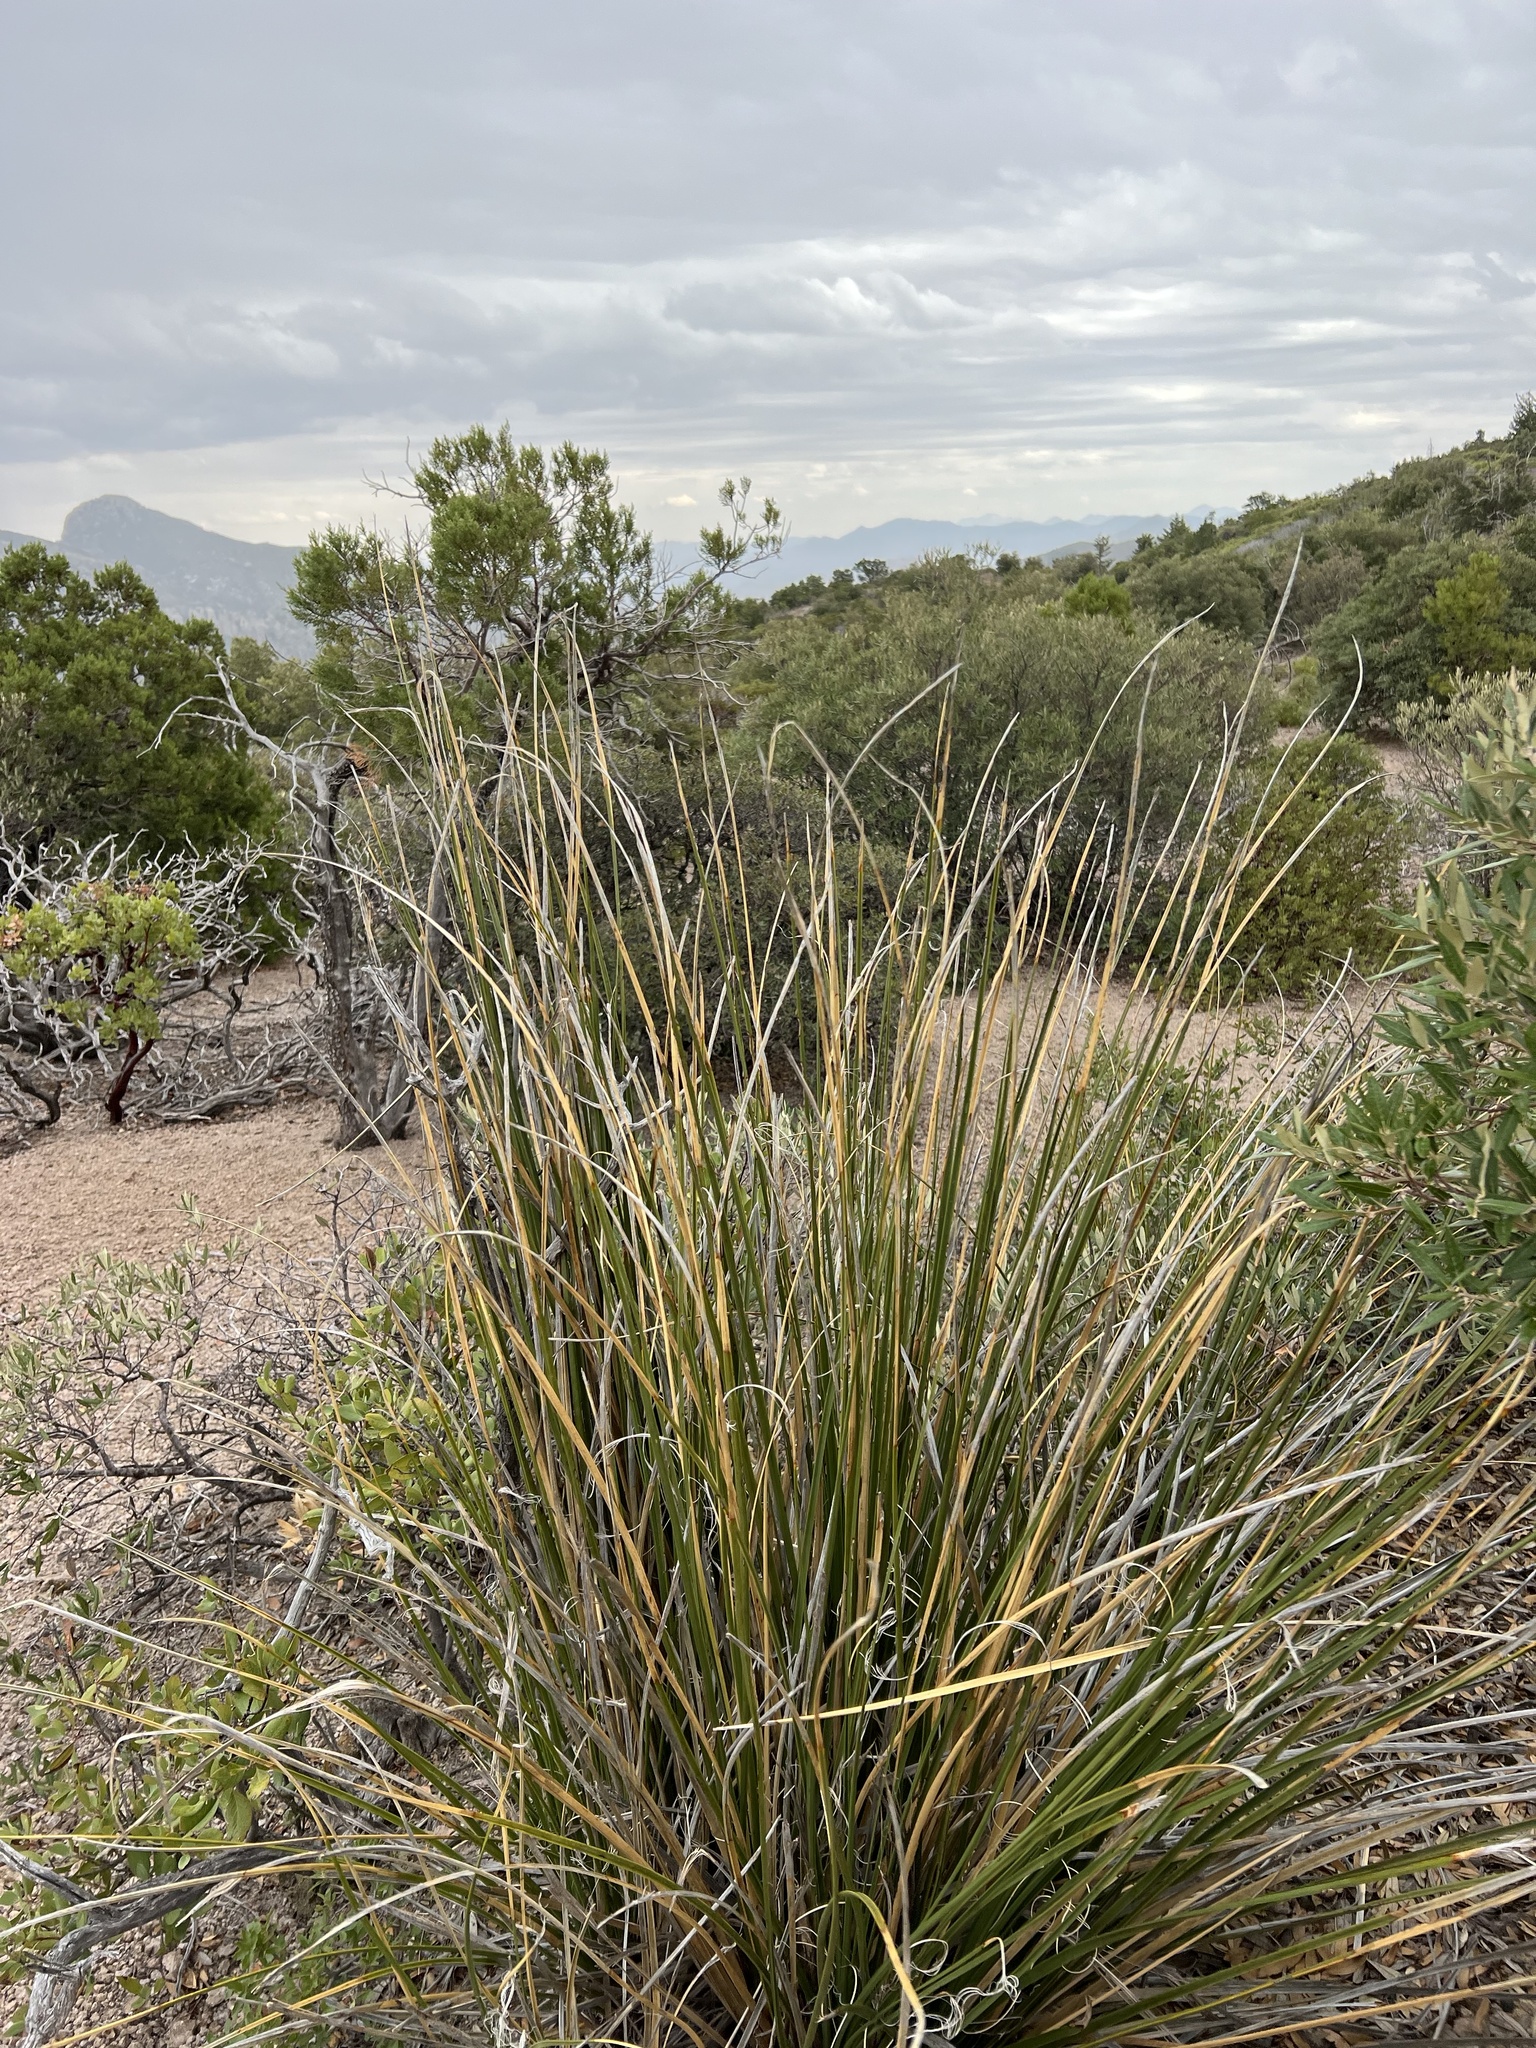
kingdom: Plantae
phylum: Tracheophyta
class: Liliopsida
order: Asparagales
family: Asparagaceae
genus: Nolina
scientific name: Nolina microcarpa
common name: Bear-grass
